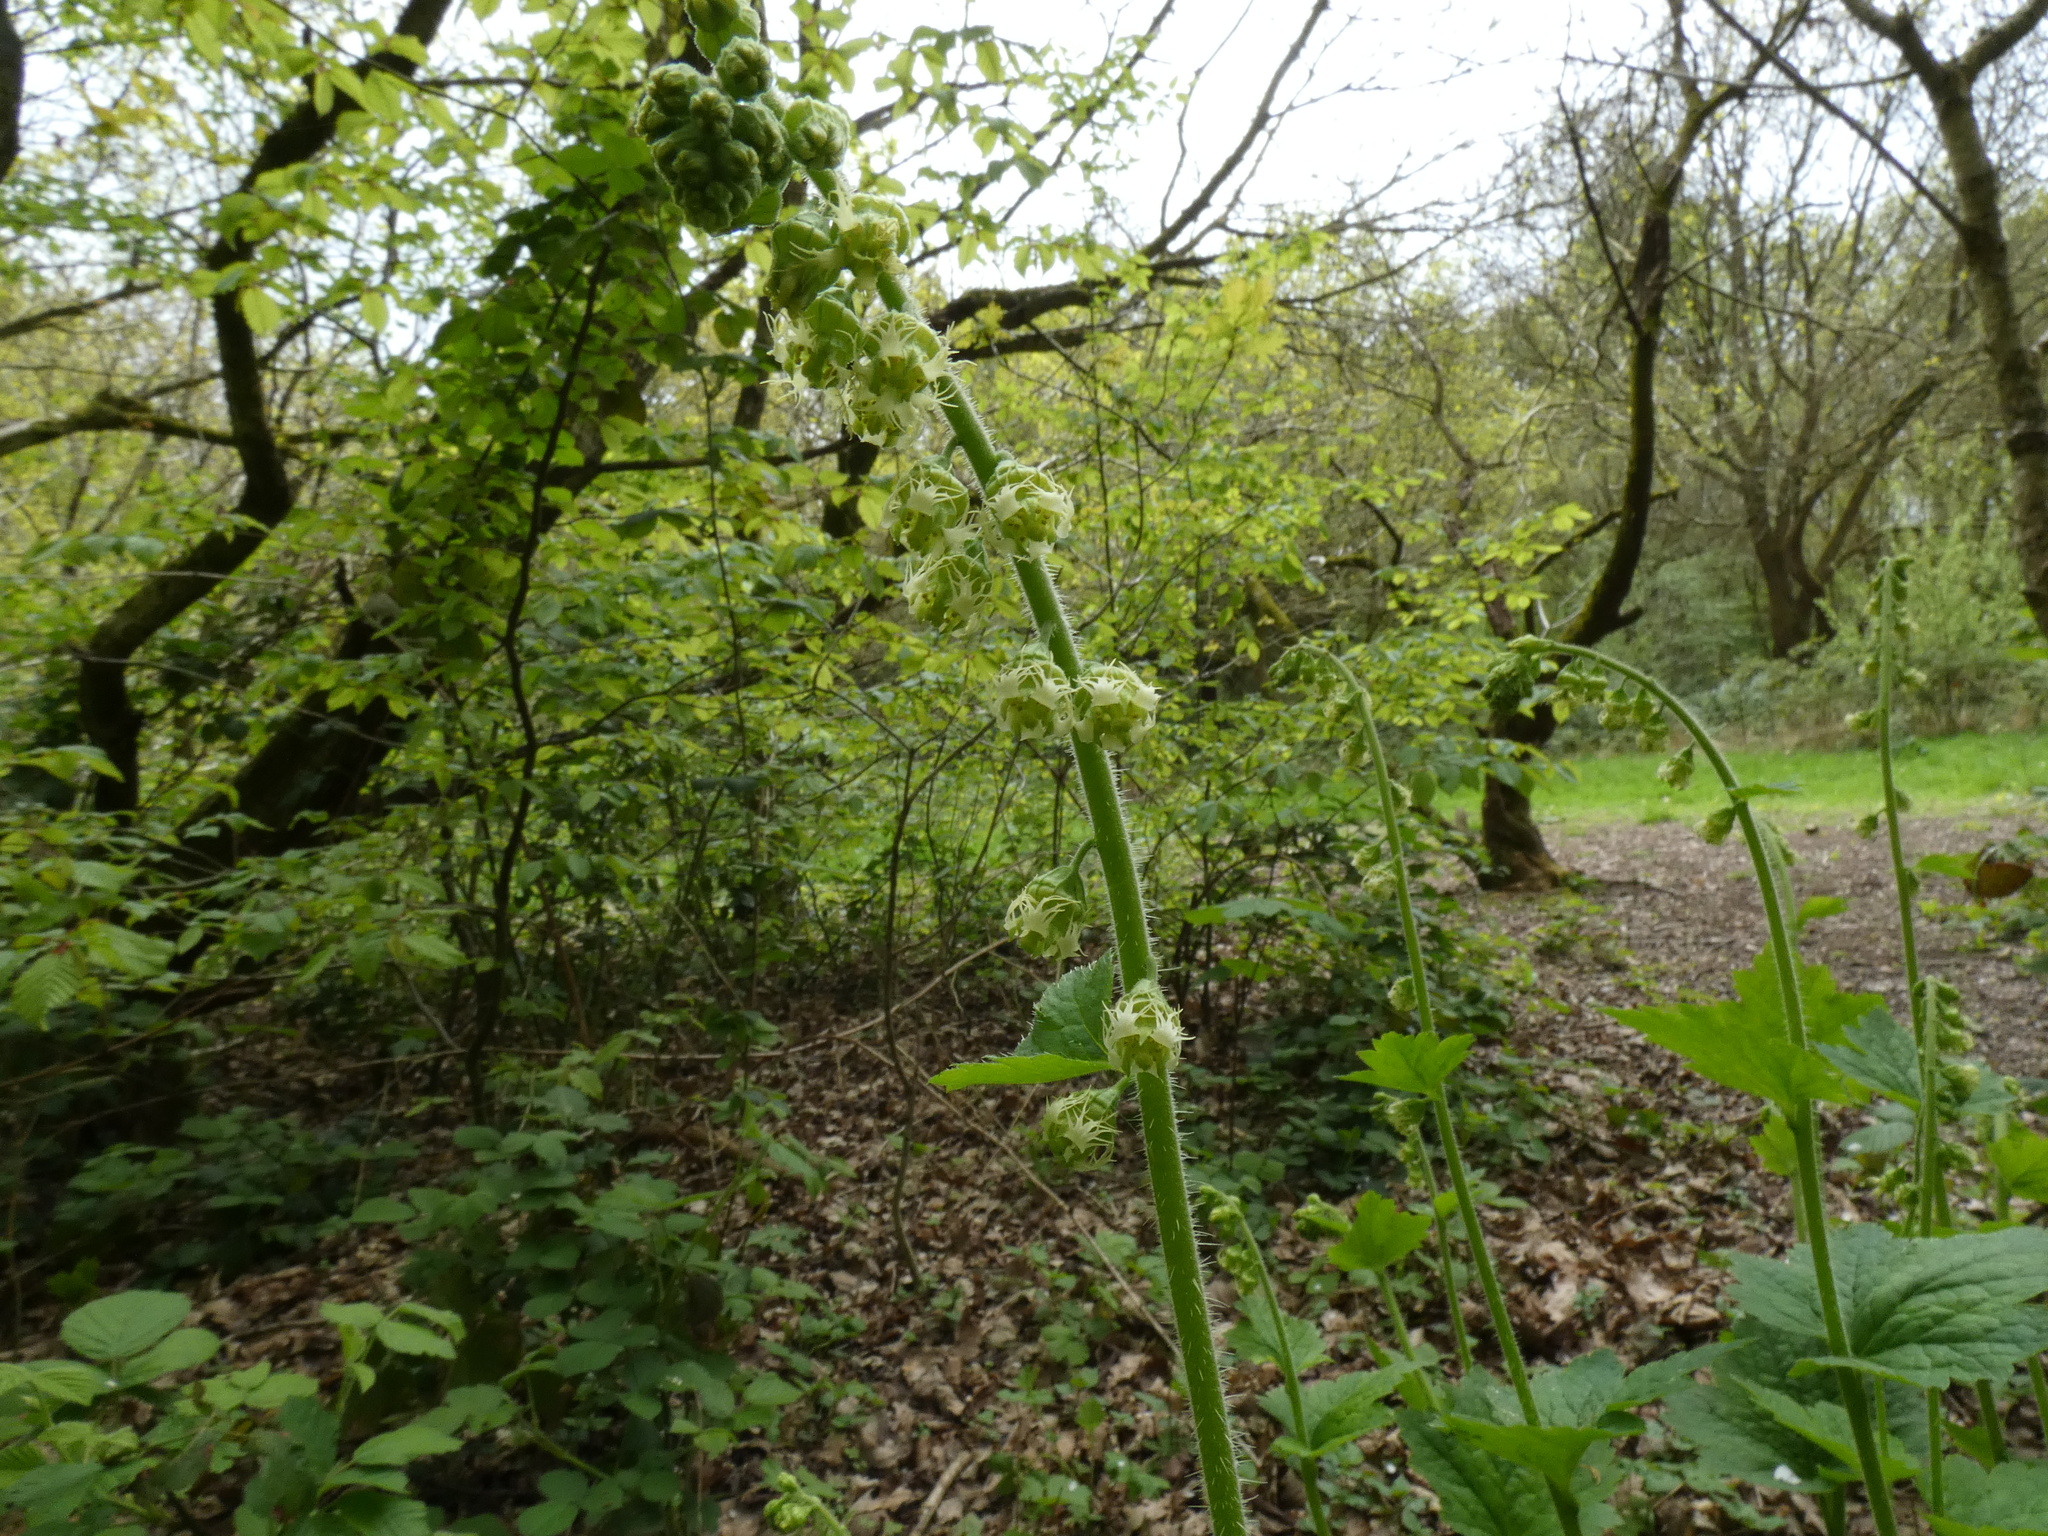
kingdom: Plantae
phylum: Tracheophyta
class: Magnoliopsida
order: Saxifragales
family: Saxifragaceae
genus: Tellima
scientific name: Tellima grandiflora
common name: Fringecups
